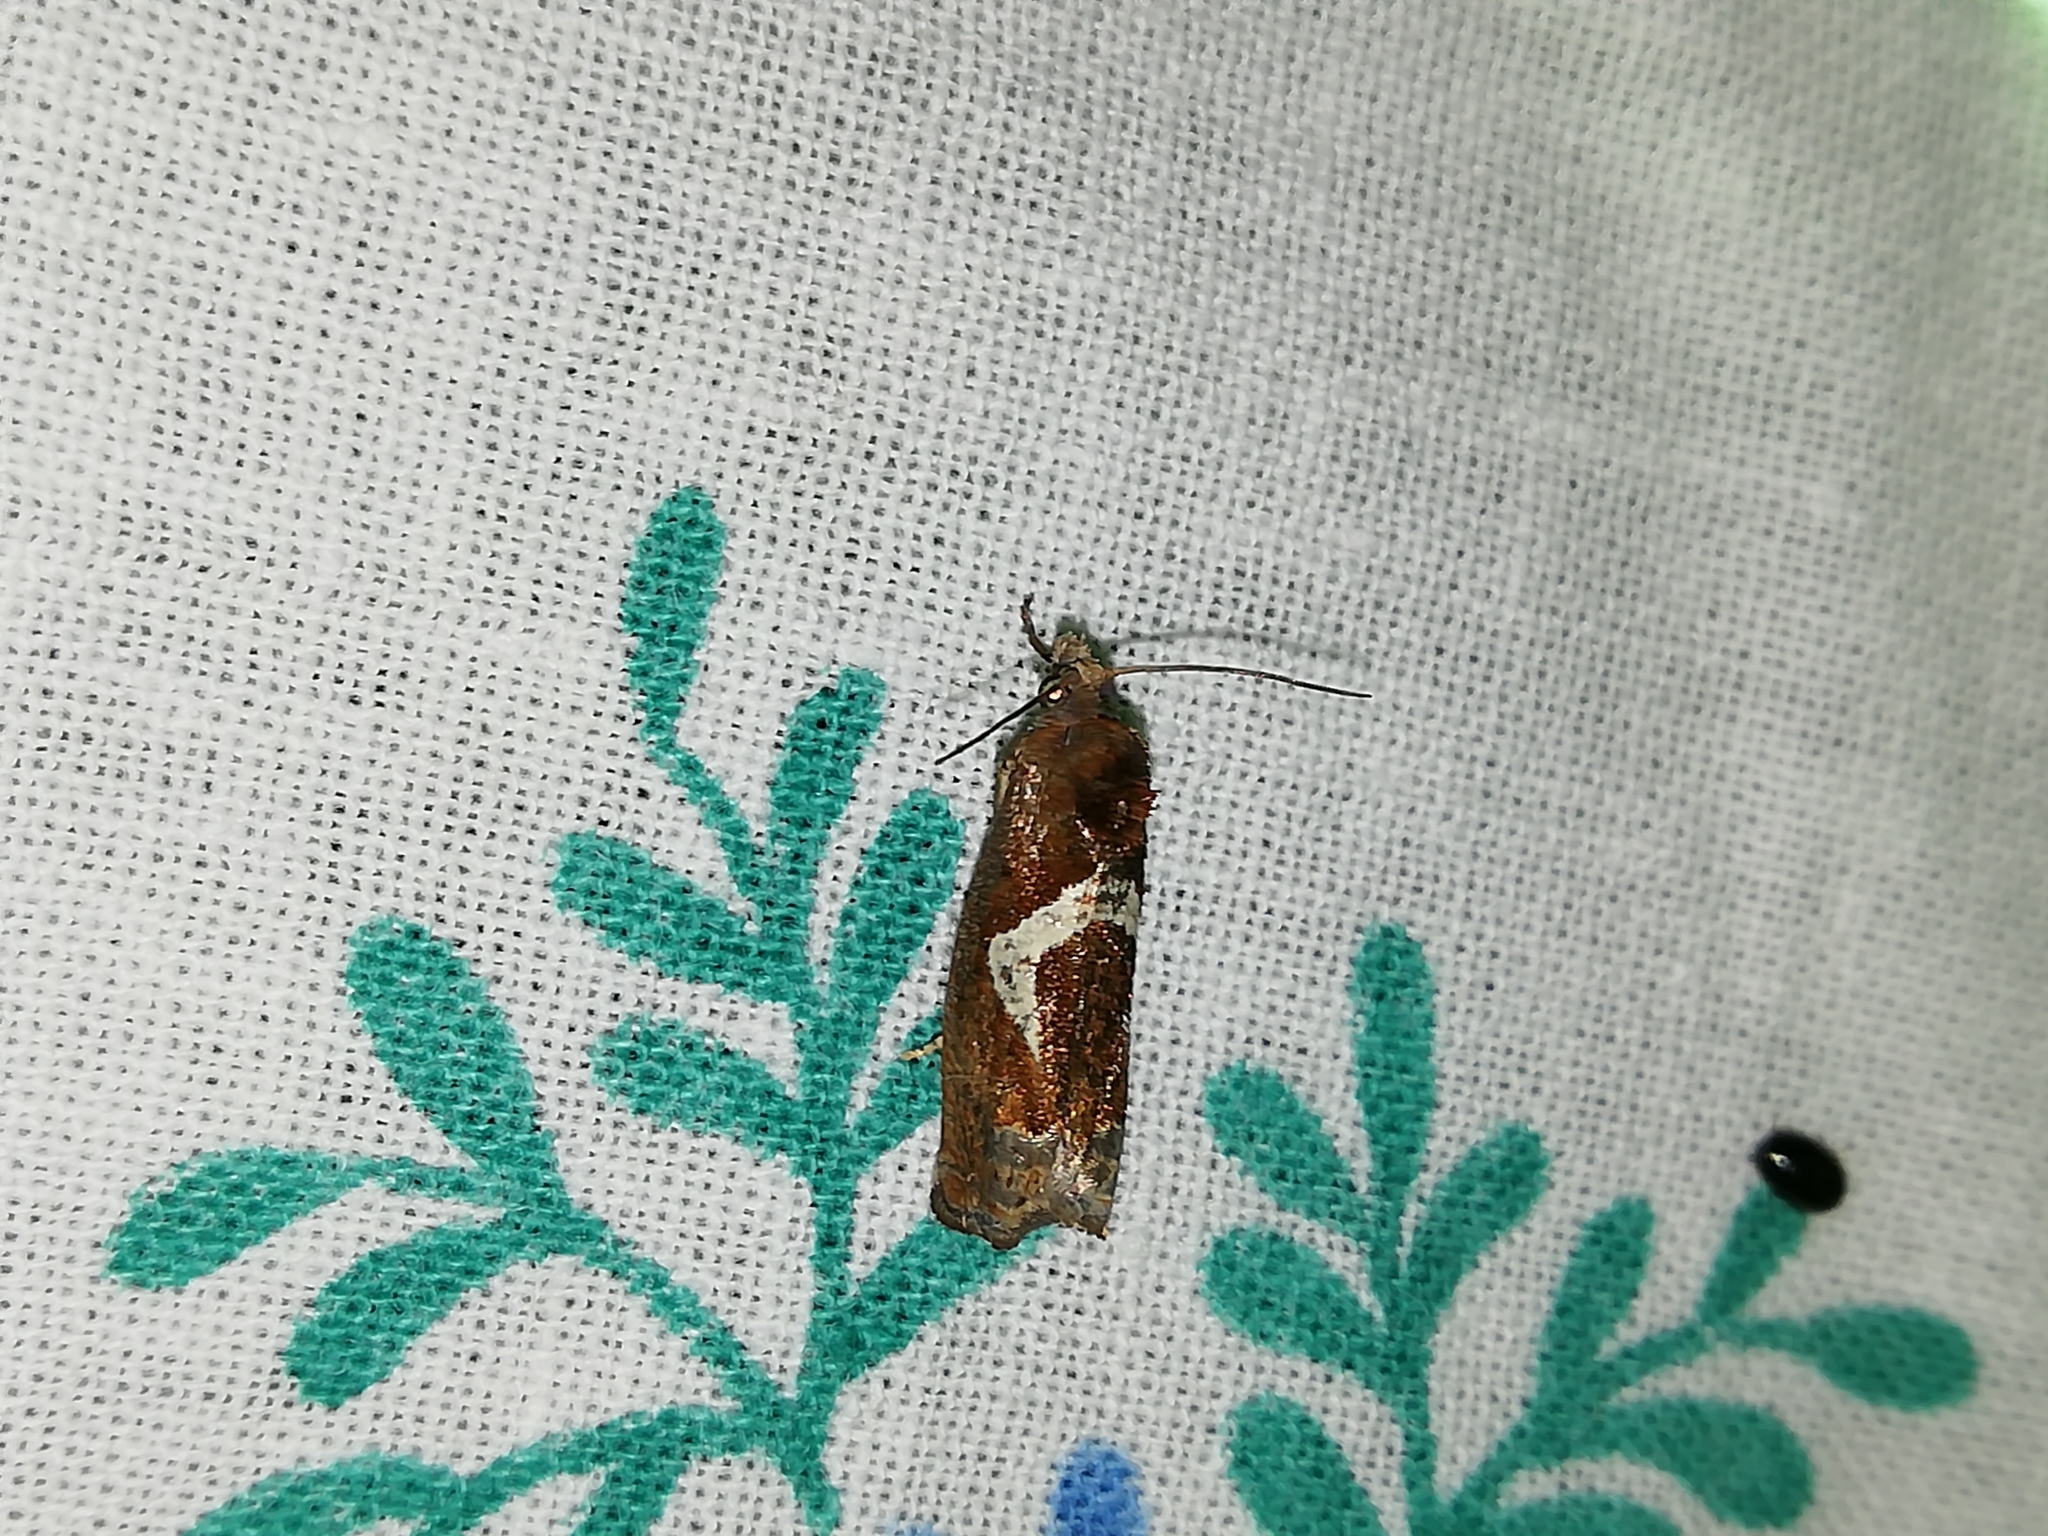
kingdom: Animalia
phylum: Arthropoda
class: Insecta
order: Lepidoptera
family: Tortricidae
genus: Epiblema
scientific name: Epiblema foenella
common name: White-foot bell
